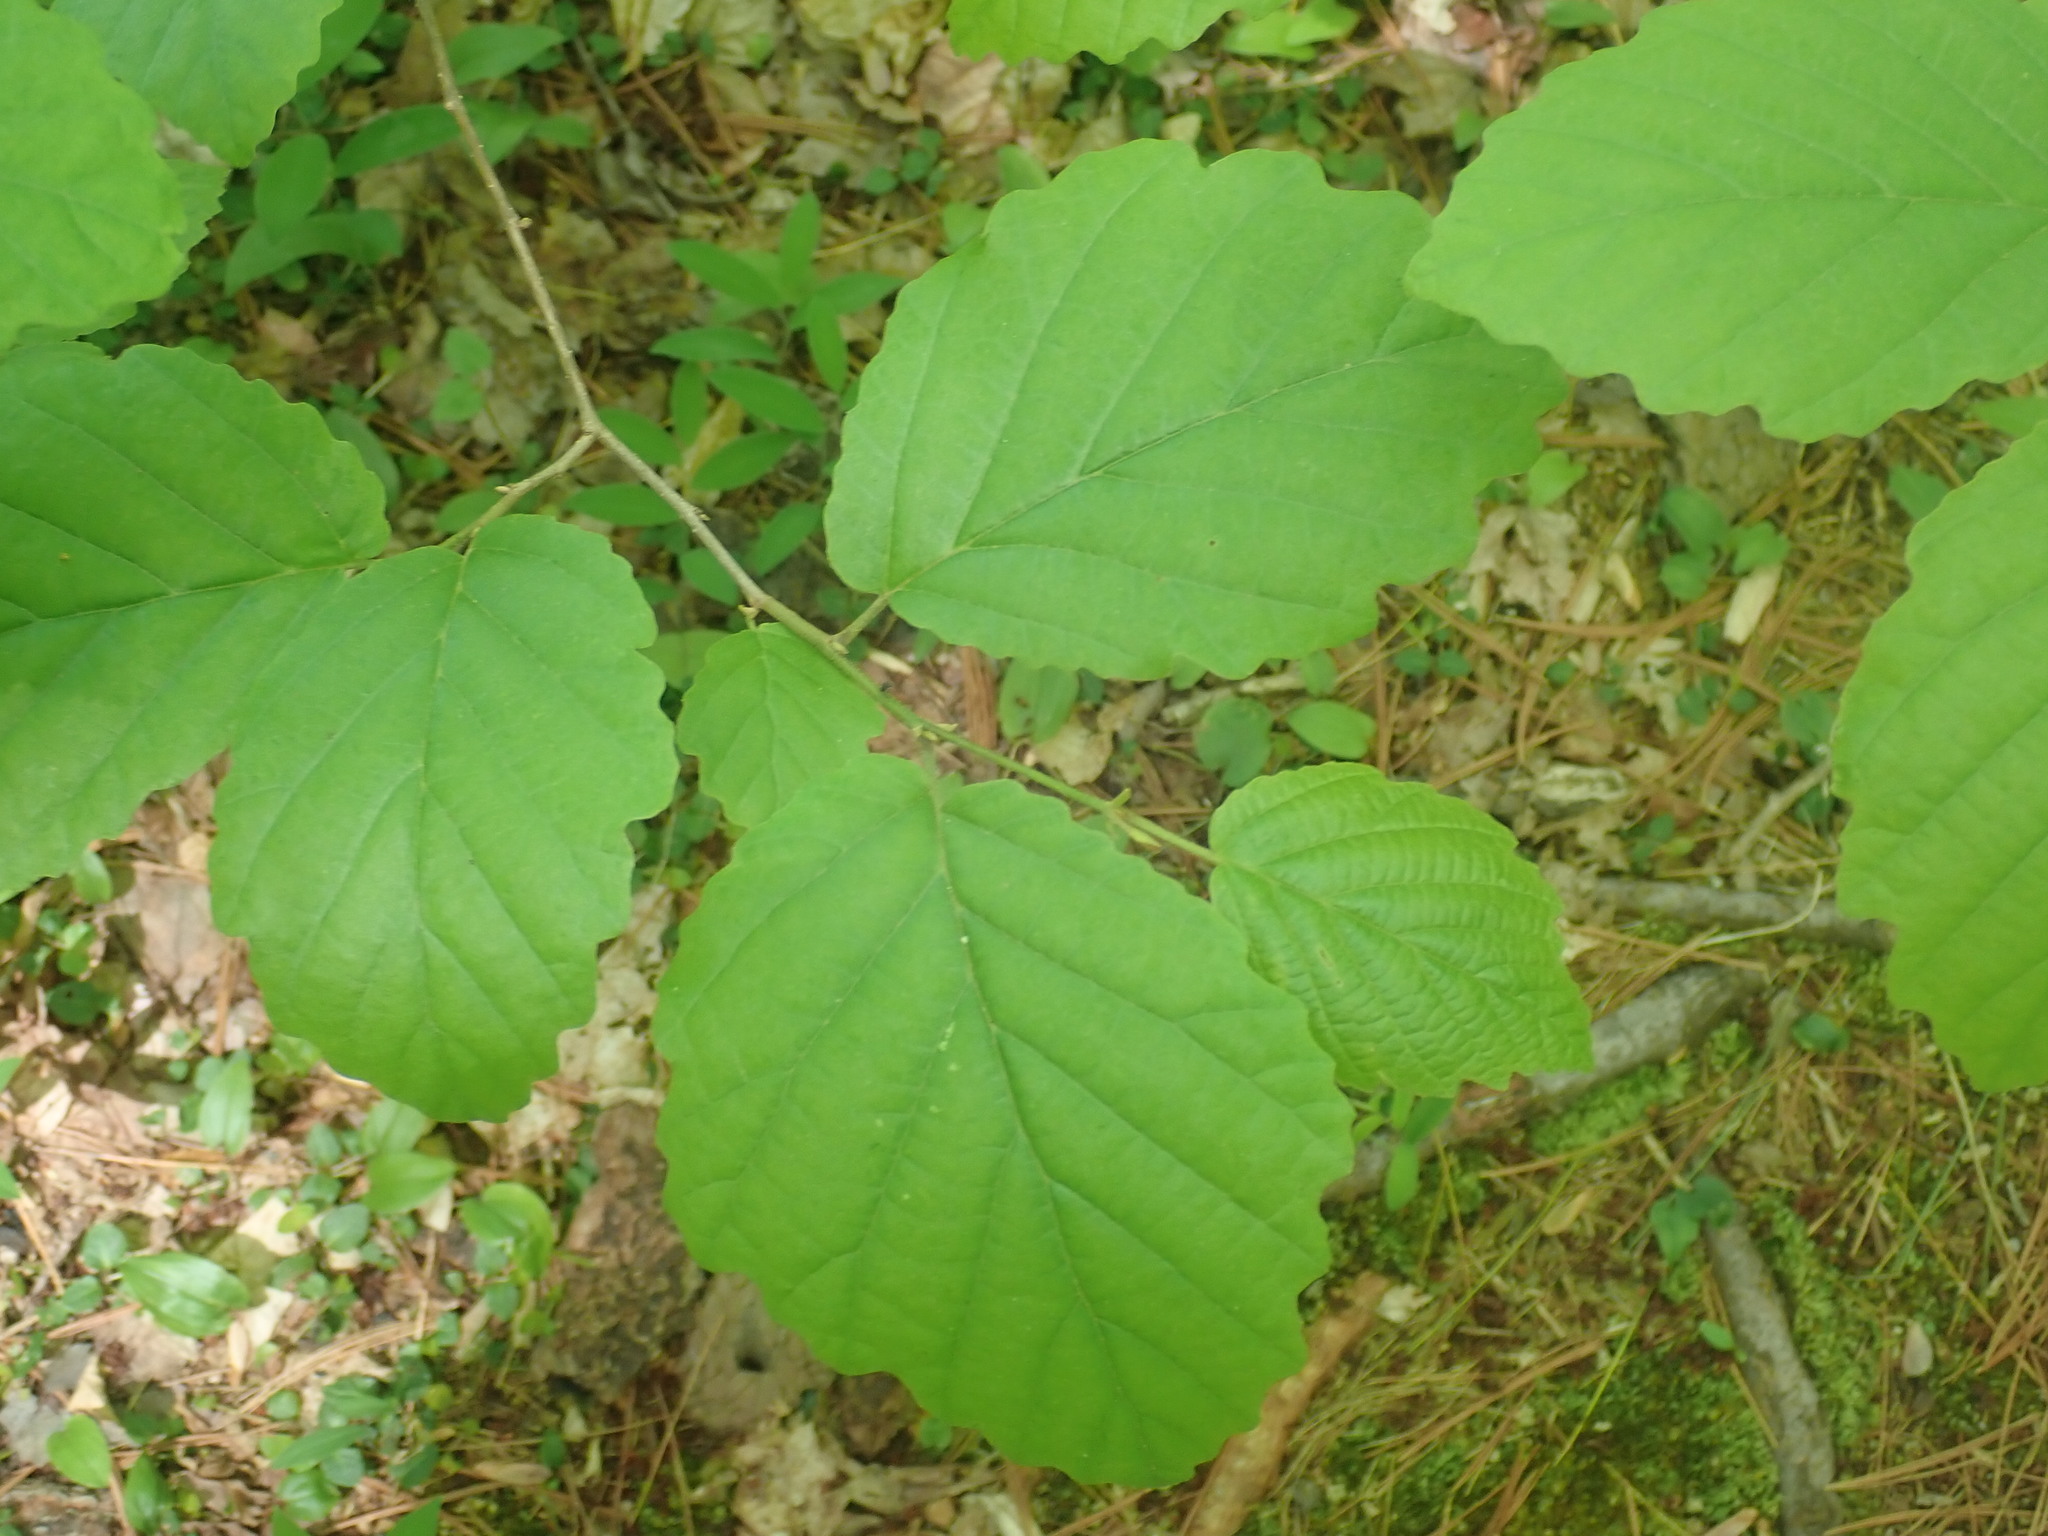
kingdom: Plantae
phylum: Tracheophyta
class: Magnoliopsida
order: Saxifragales
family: Hamamelidaceae
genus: Hamamelis
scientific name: Hamamelis virginiana
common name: Witch-hazel
